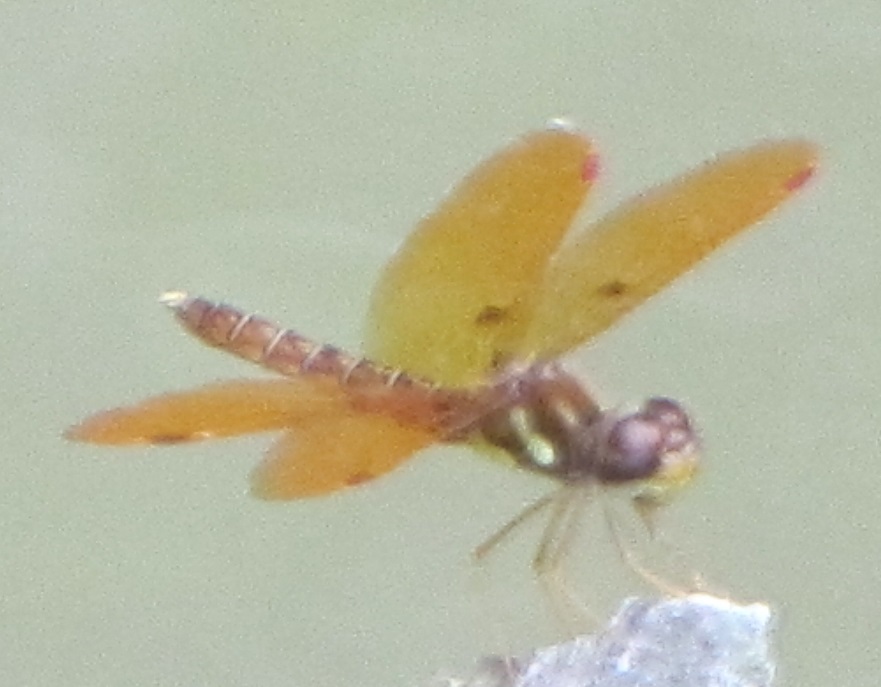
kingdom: Animalia
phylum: Arthropoda
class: Insecta
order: Odonata
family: Libellulidae
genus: Perithemis
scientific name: Perithemis tenera
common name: Eastern amberwing
